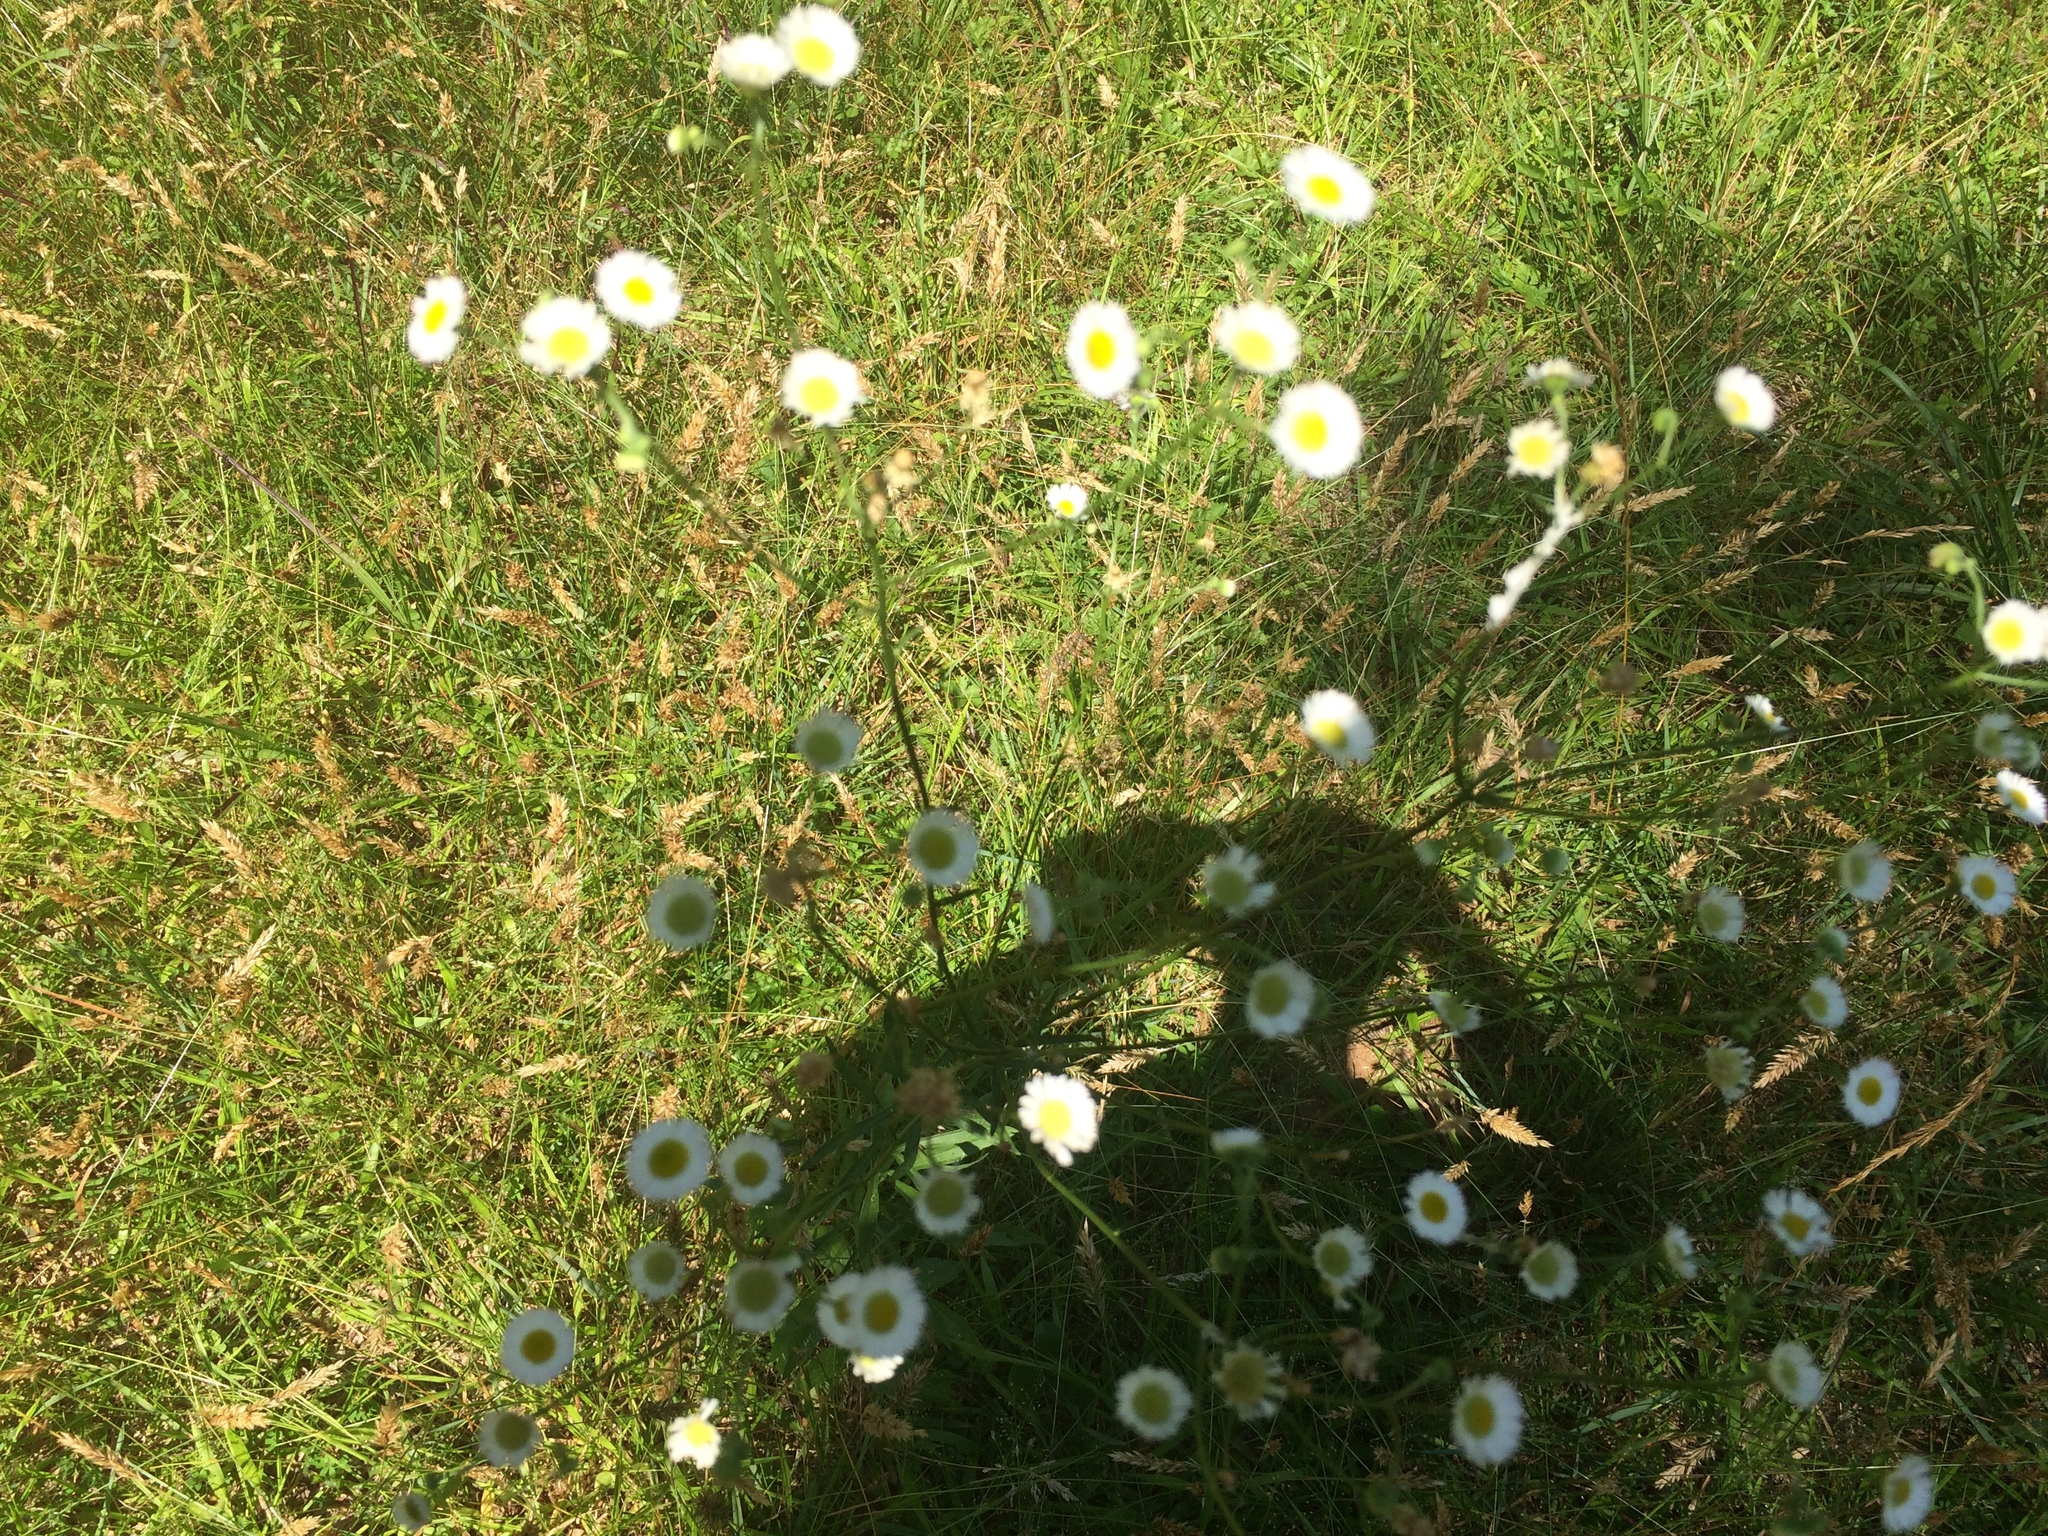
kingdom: Plantae
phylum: Tracheophyta
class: Magnoliopsida
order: Asterales
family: Asteraceae
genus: Erigeron
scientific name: Erigeron strigosus
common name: Common eastern fleabane
